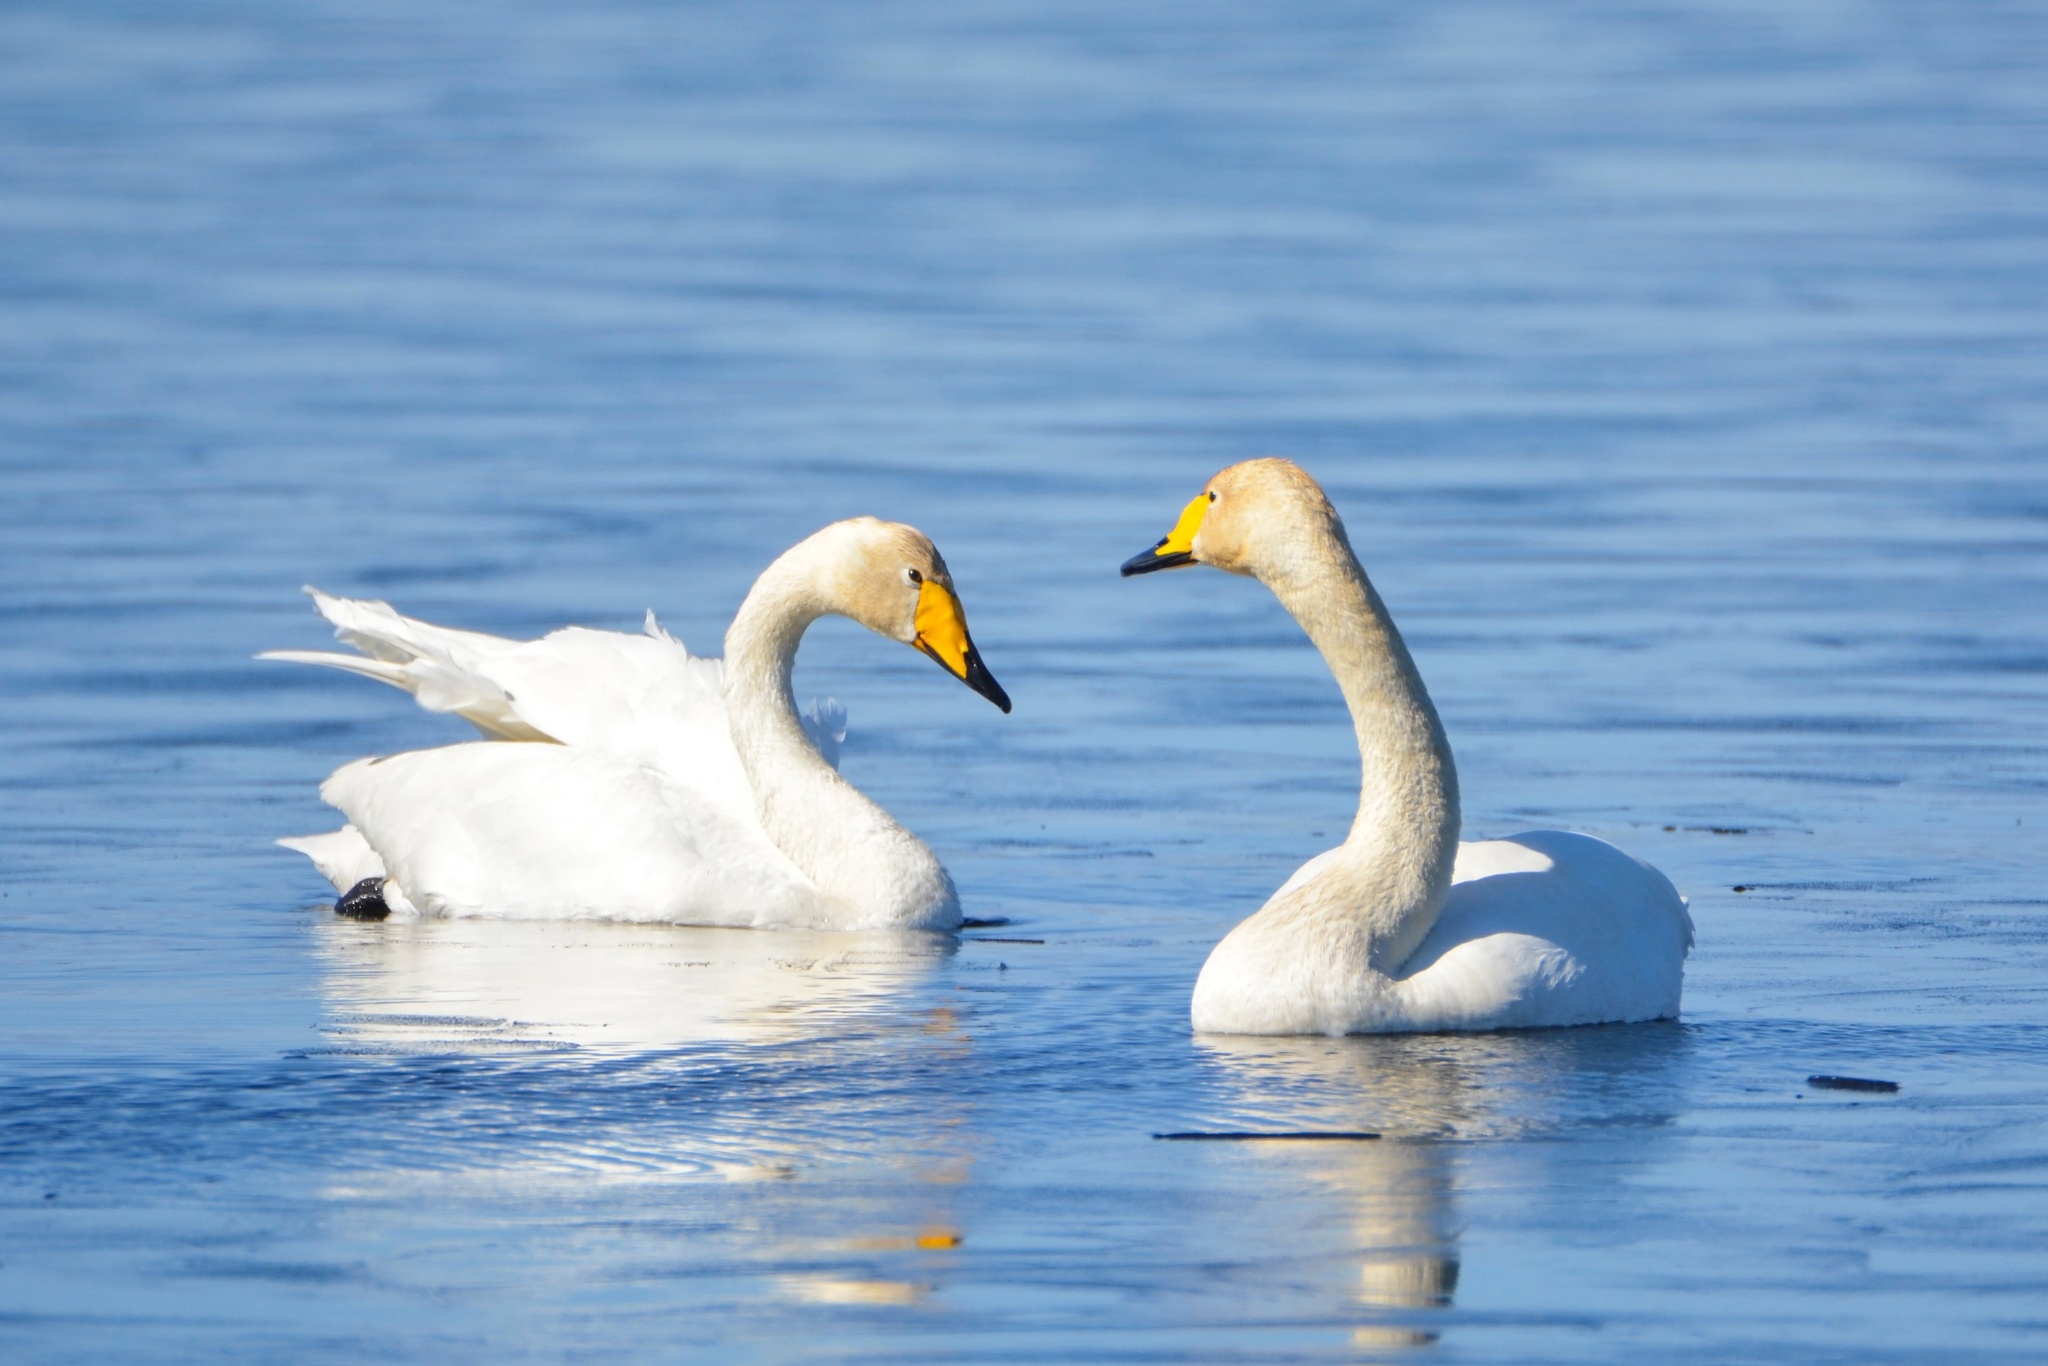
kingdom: Animalia
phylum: Chordata
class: Aves
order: Anseriformes
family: Anatidae
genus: Cygnus
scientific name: Cygnus cygnus
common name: Whooper swan
